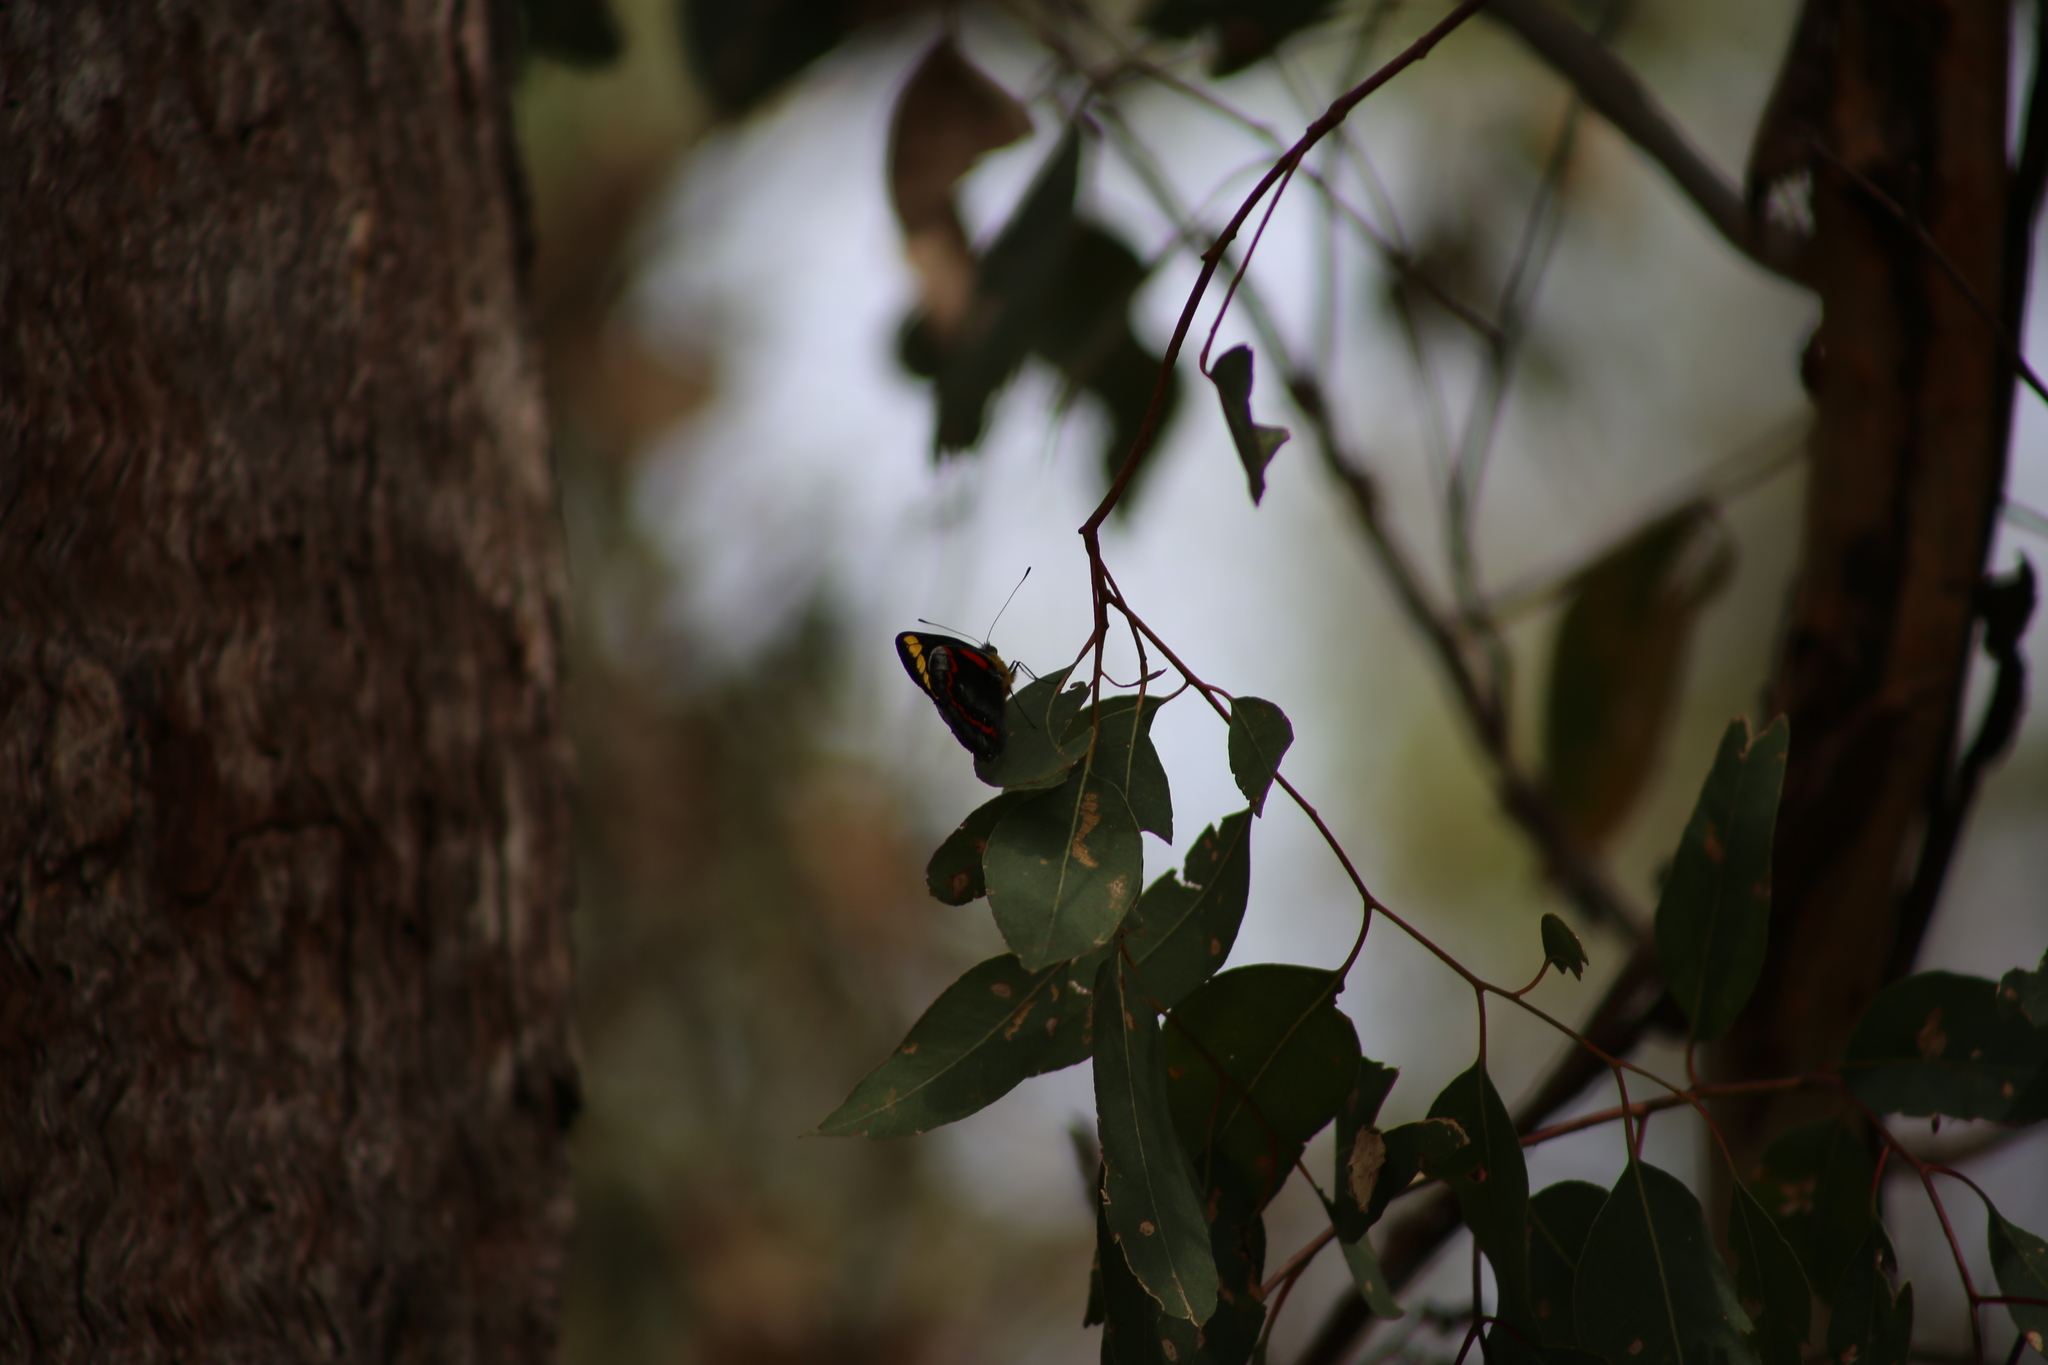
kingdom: Animalia
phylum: Arthropoda
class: Insecta
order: Lepidoptera
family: Pieridae
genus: Delias
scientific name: Delias nigrina
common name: Black jezebel
